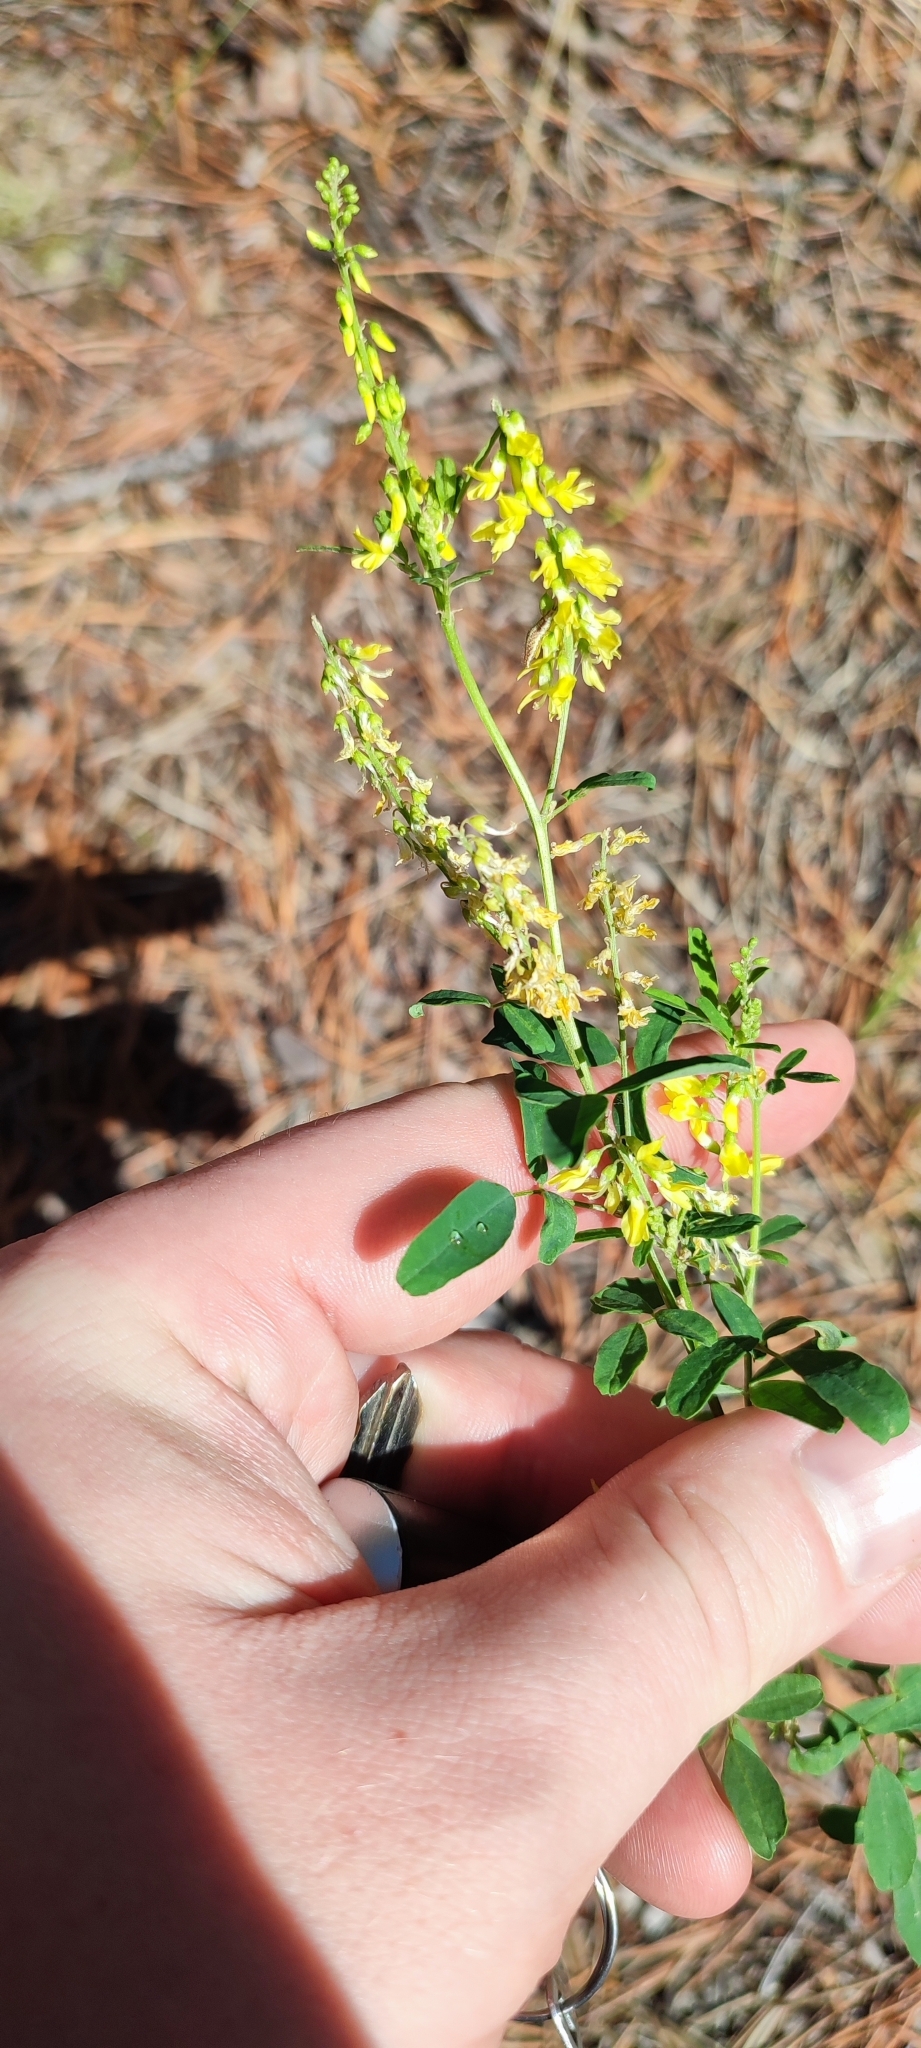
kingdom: Plantae
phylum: Tracheophyta
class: Magnoliopsida
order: Fabales
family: Fabaceae
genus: Melilotus
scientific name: Melilotus officinalis
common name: Sweetclover
